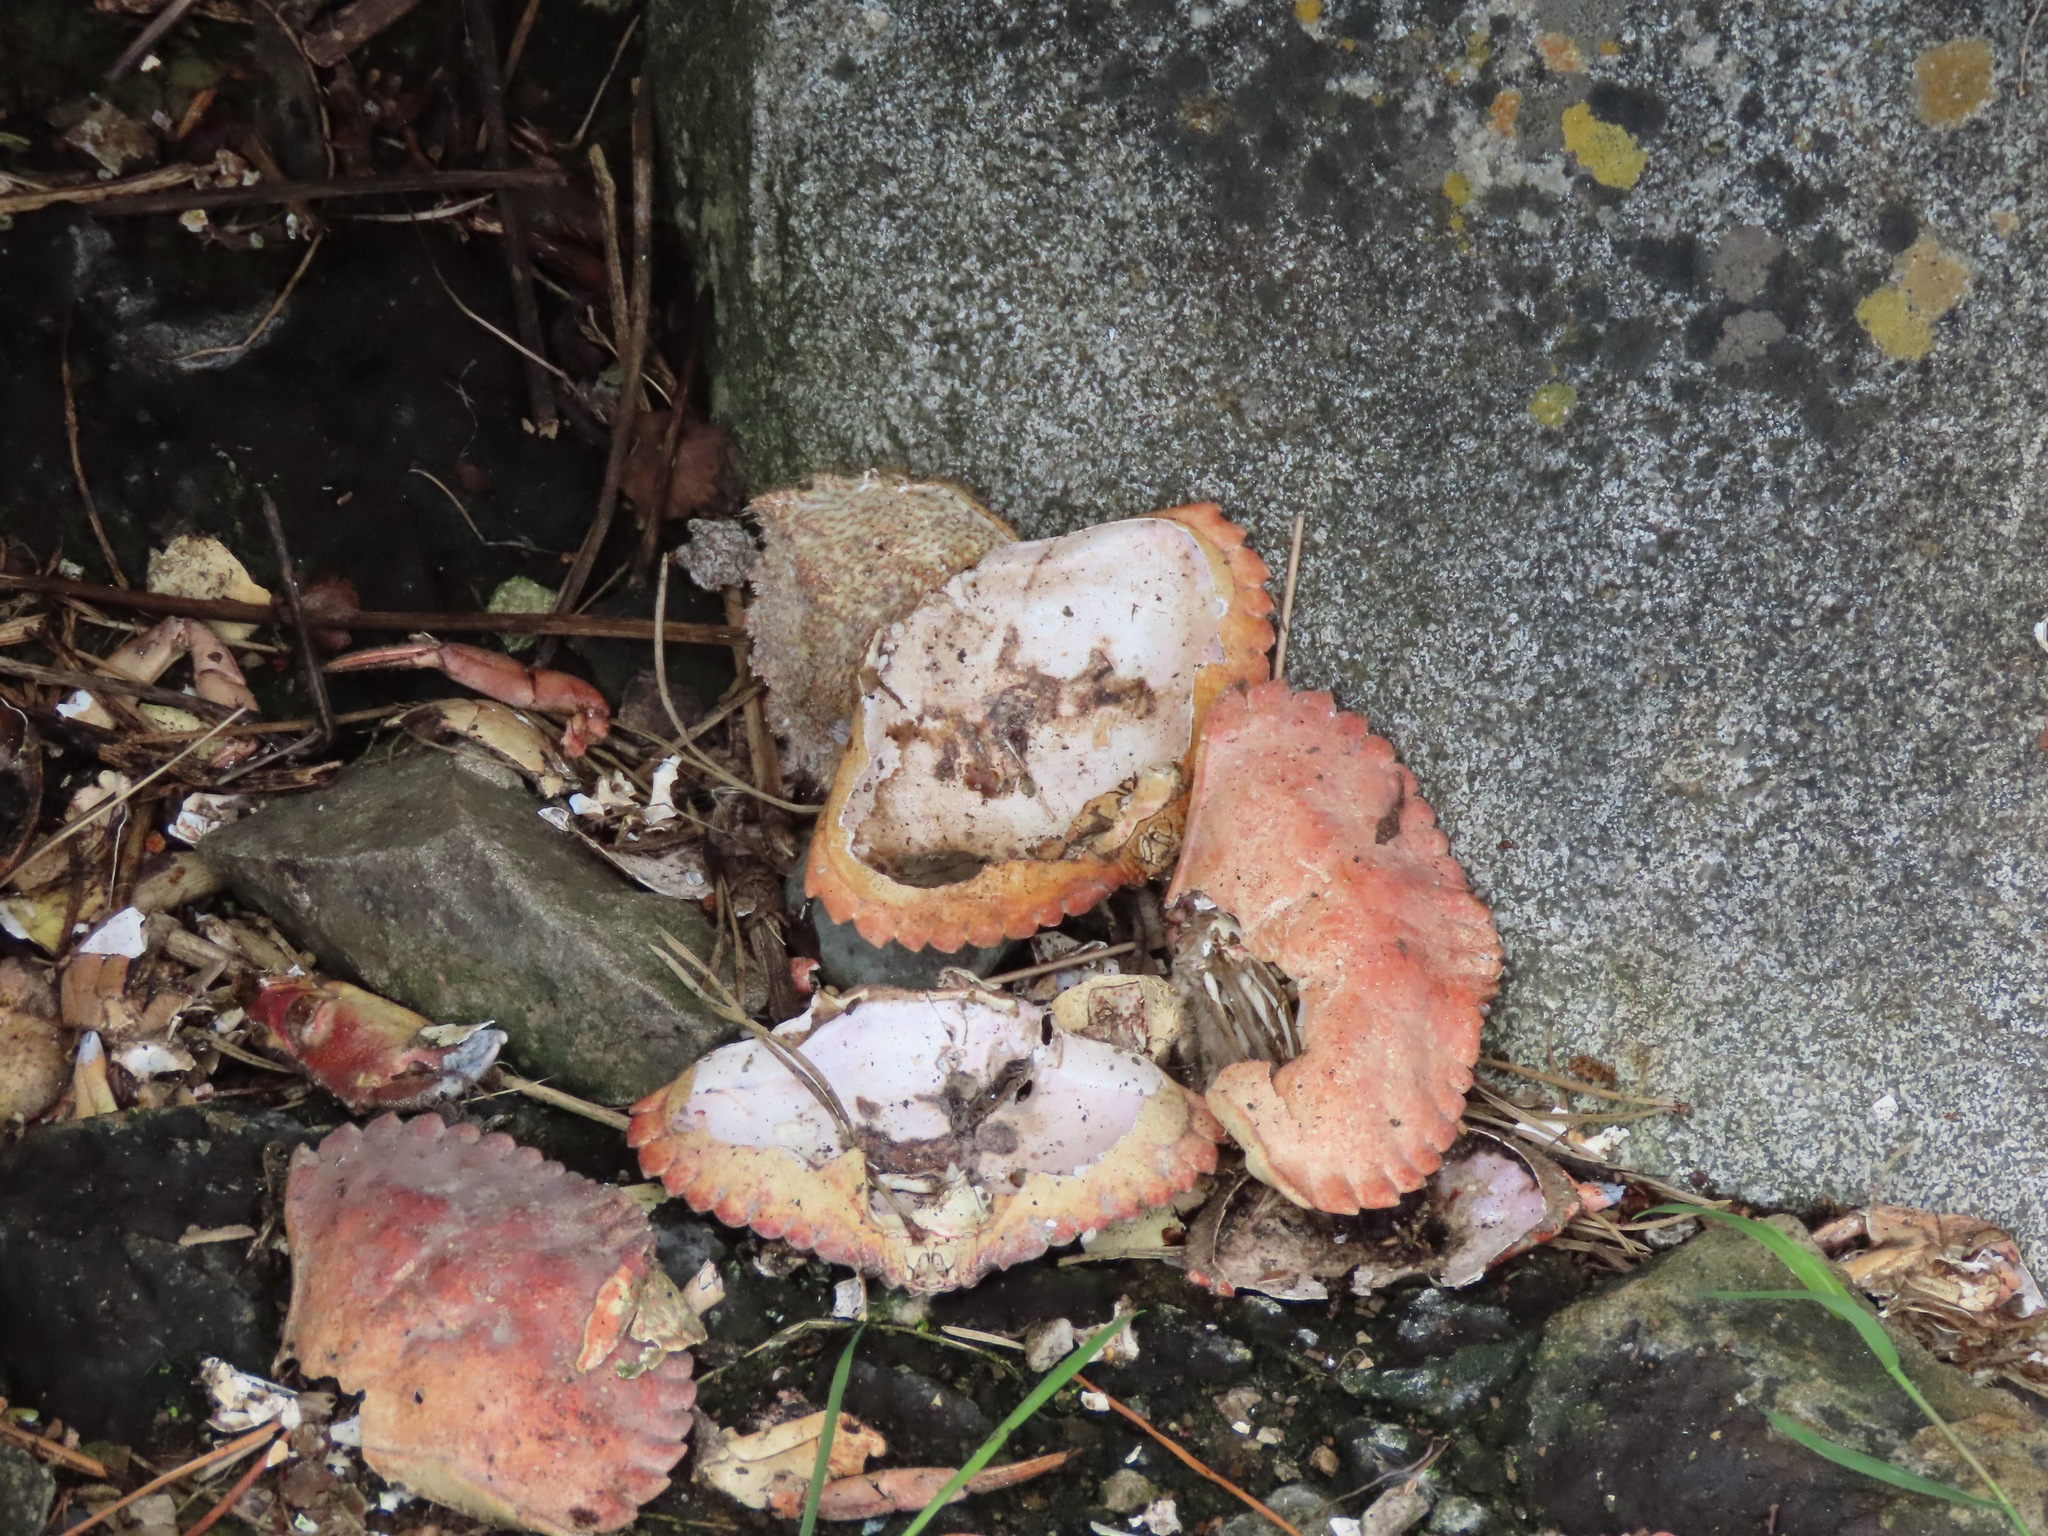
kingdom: Animalia
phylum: Arthropoda
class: Malacostraca
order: Decapoda
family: Cancridae
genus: Cancer
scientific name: Cancer productus
